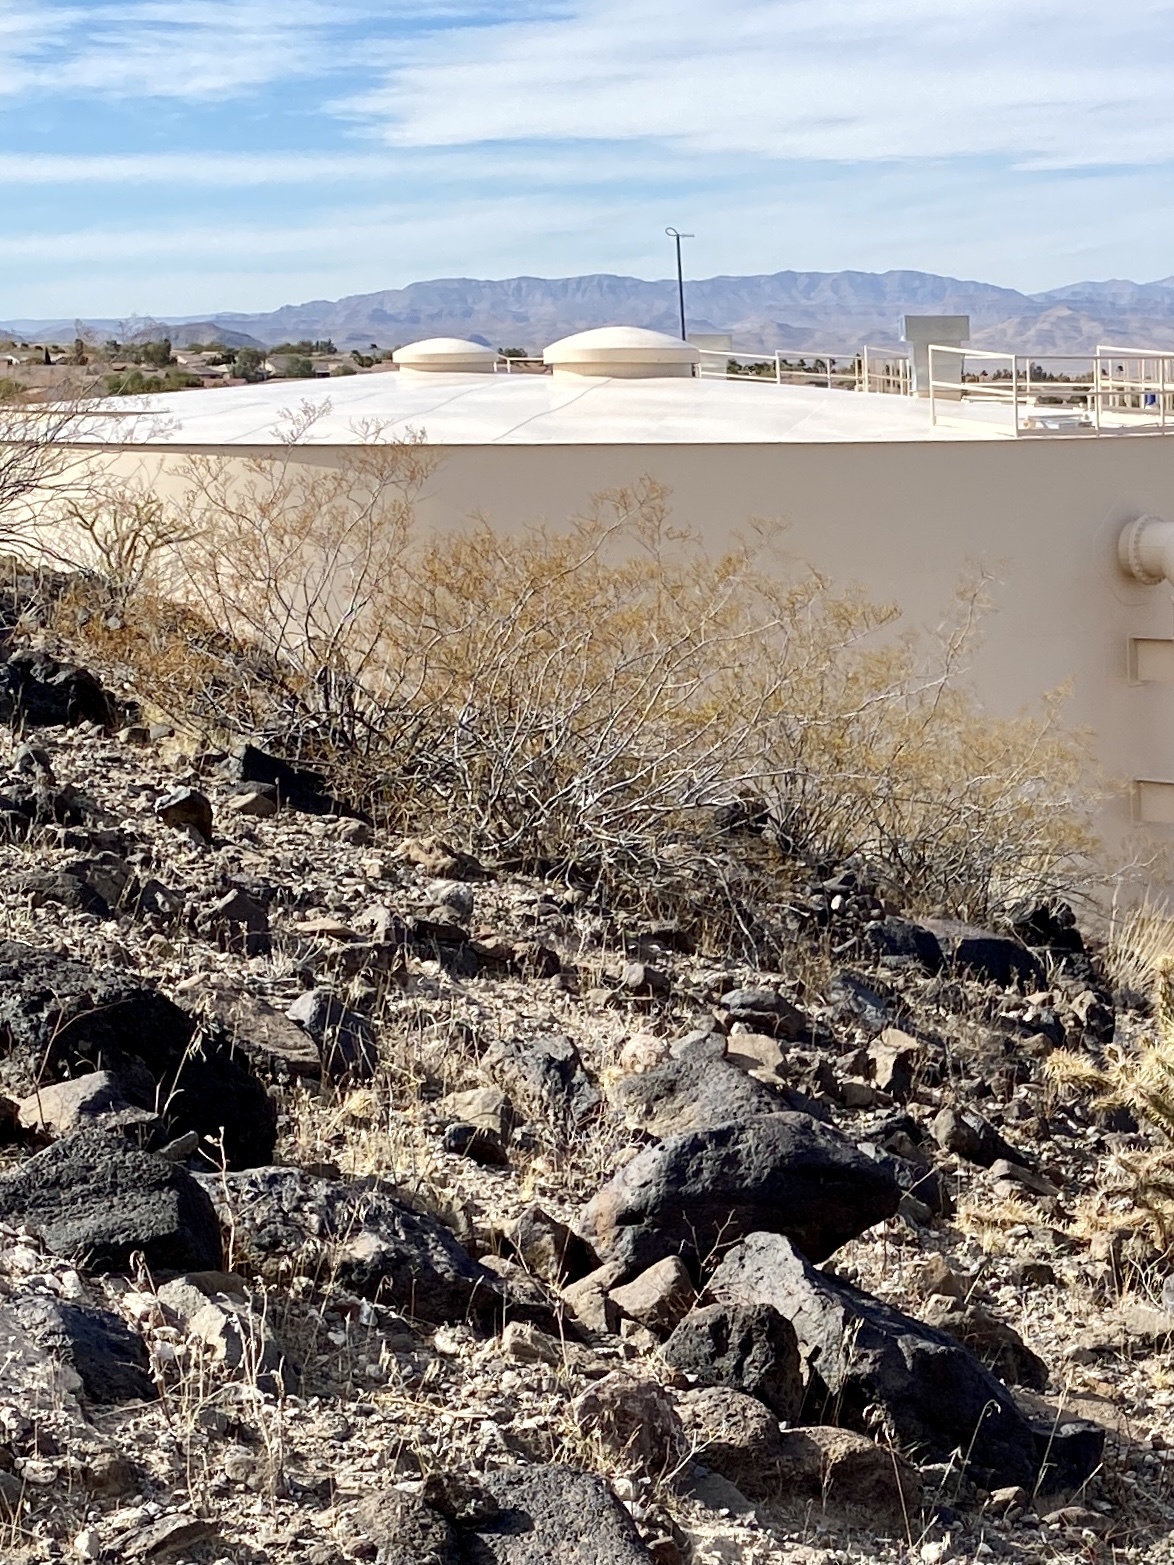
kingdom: Plantae
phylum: Tracheophyta
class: Magnoliopsida
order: Zygophyllales
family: Zygophyllaceae
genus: Larrea
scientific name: Larrea tridentata
